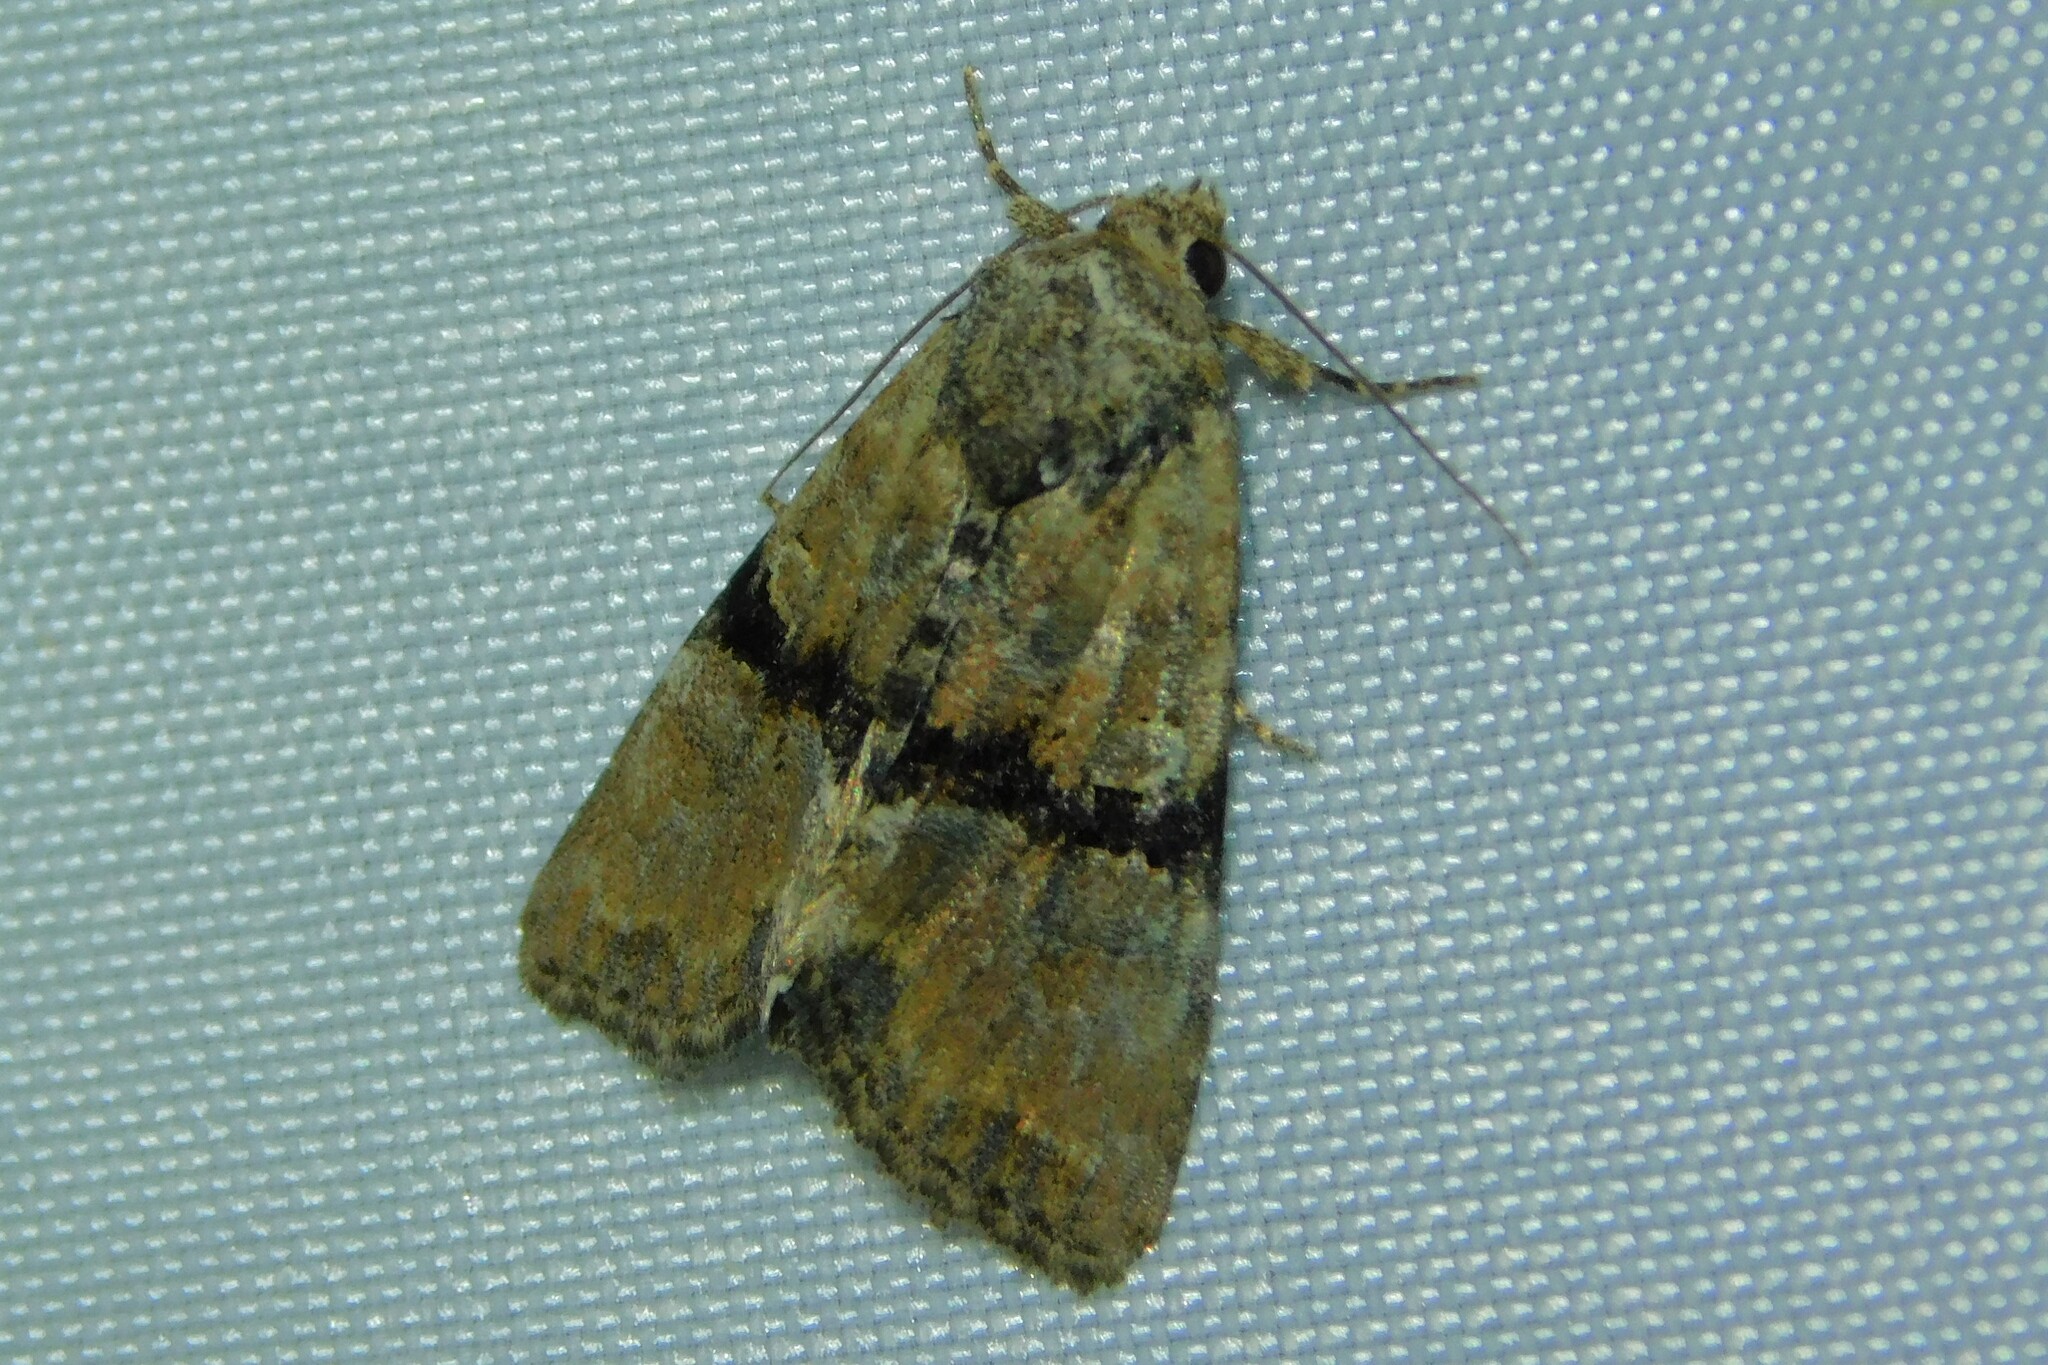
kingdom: Animalia
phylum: Arthropoda
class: Insecta
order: Lepidoptera
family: Noctuidae
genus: Mesoligia
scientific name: Mesoligia furuncula
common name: Cloaked minor
